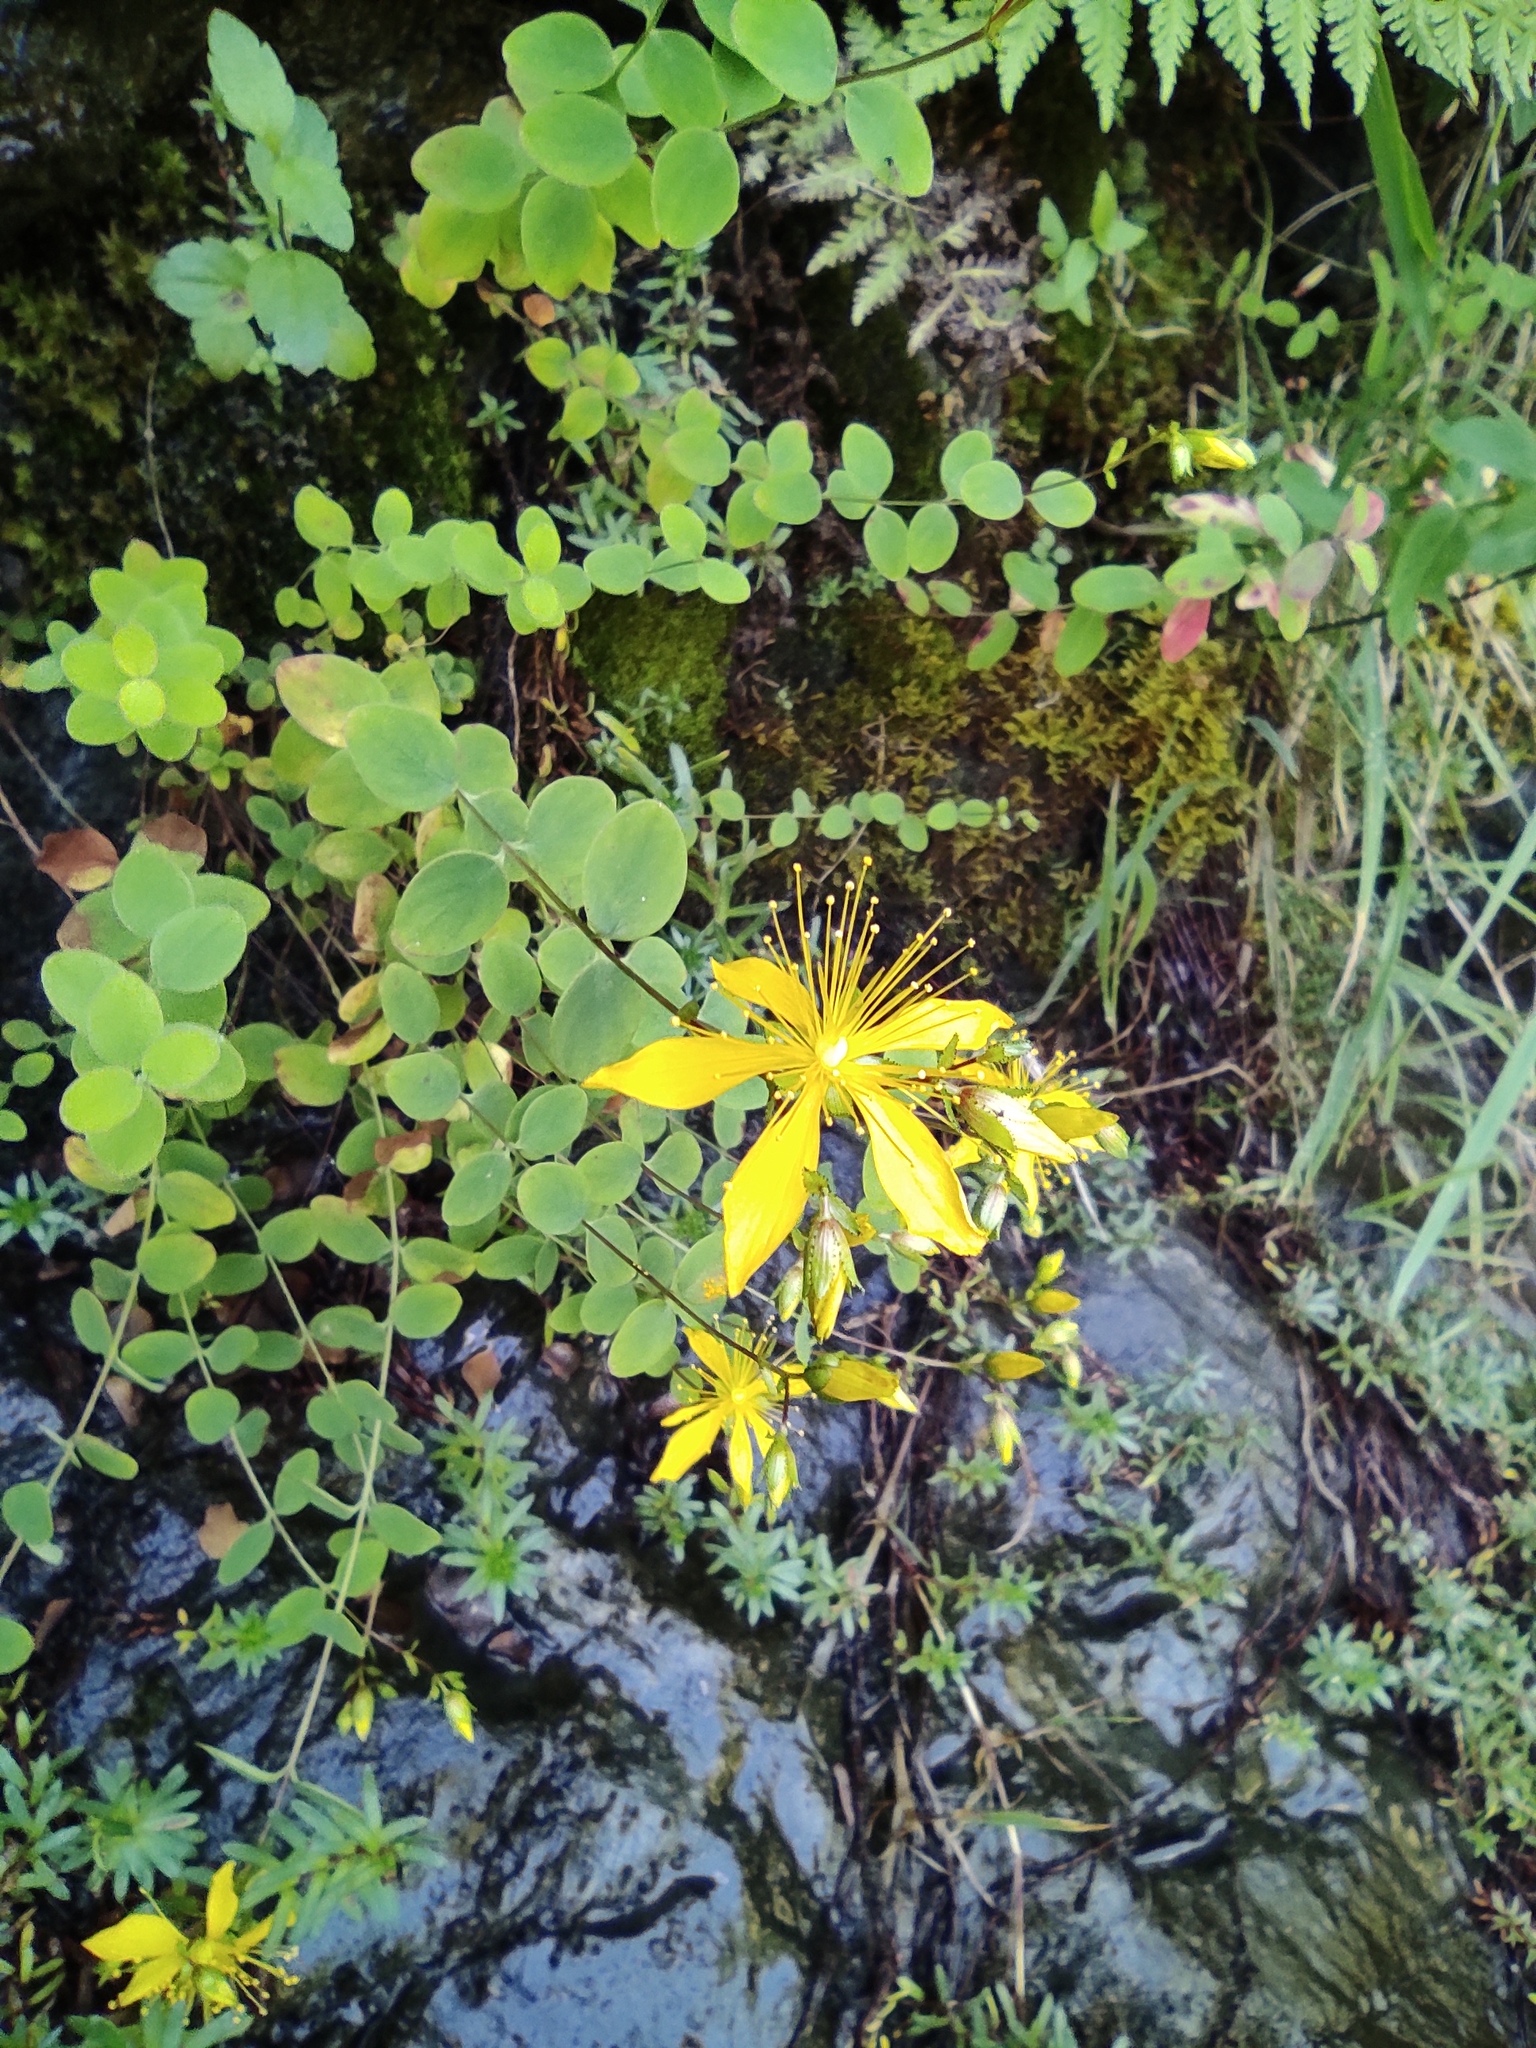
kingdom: Plantae
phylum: Tracheophyta
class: Magnoliopsida
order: Malpighiales
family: Hypericaceae
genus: Hypericum
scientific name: Hypericum nummularium
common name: Round-leaved st john's-wort
